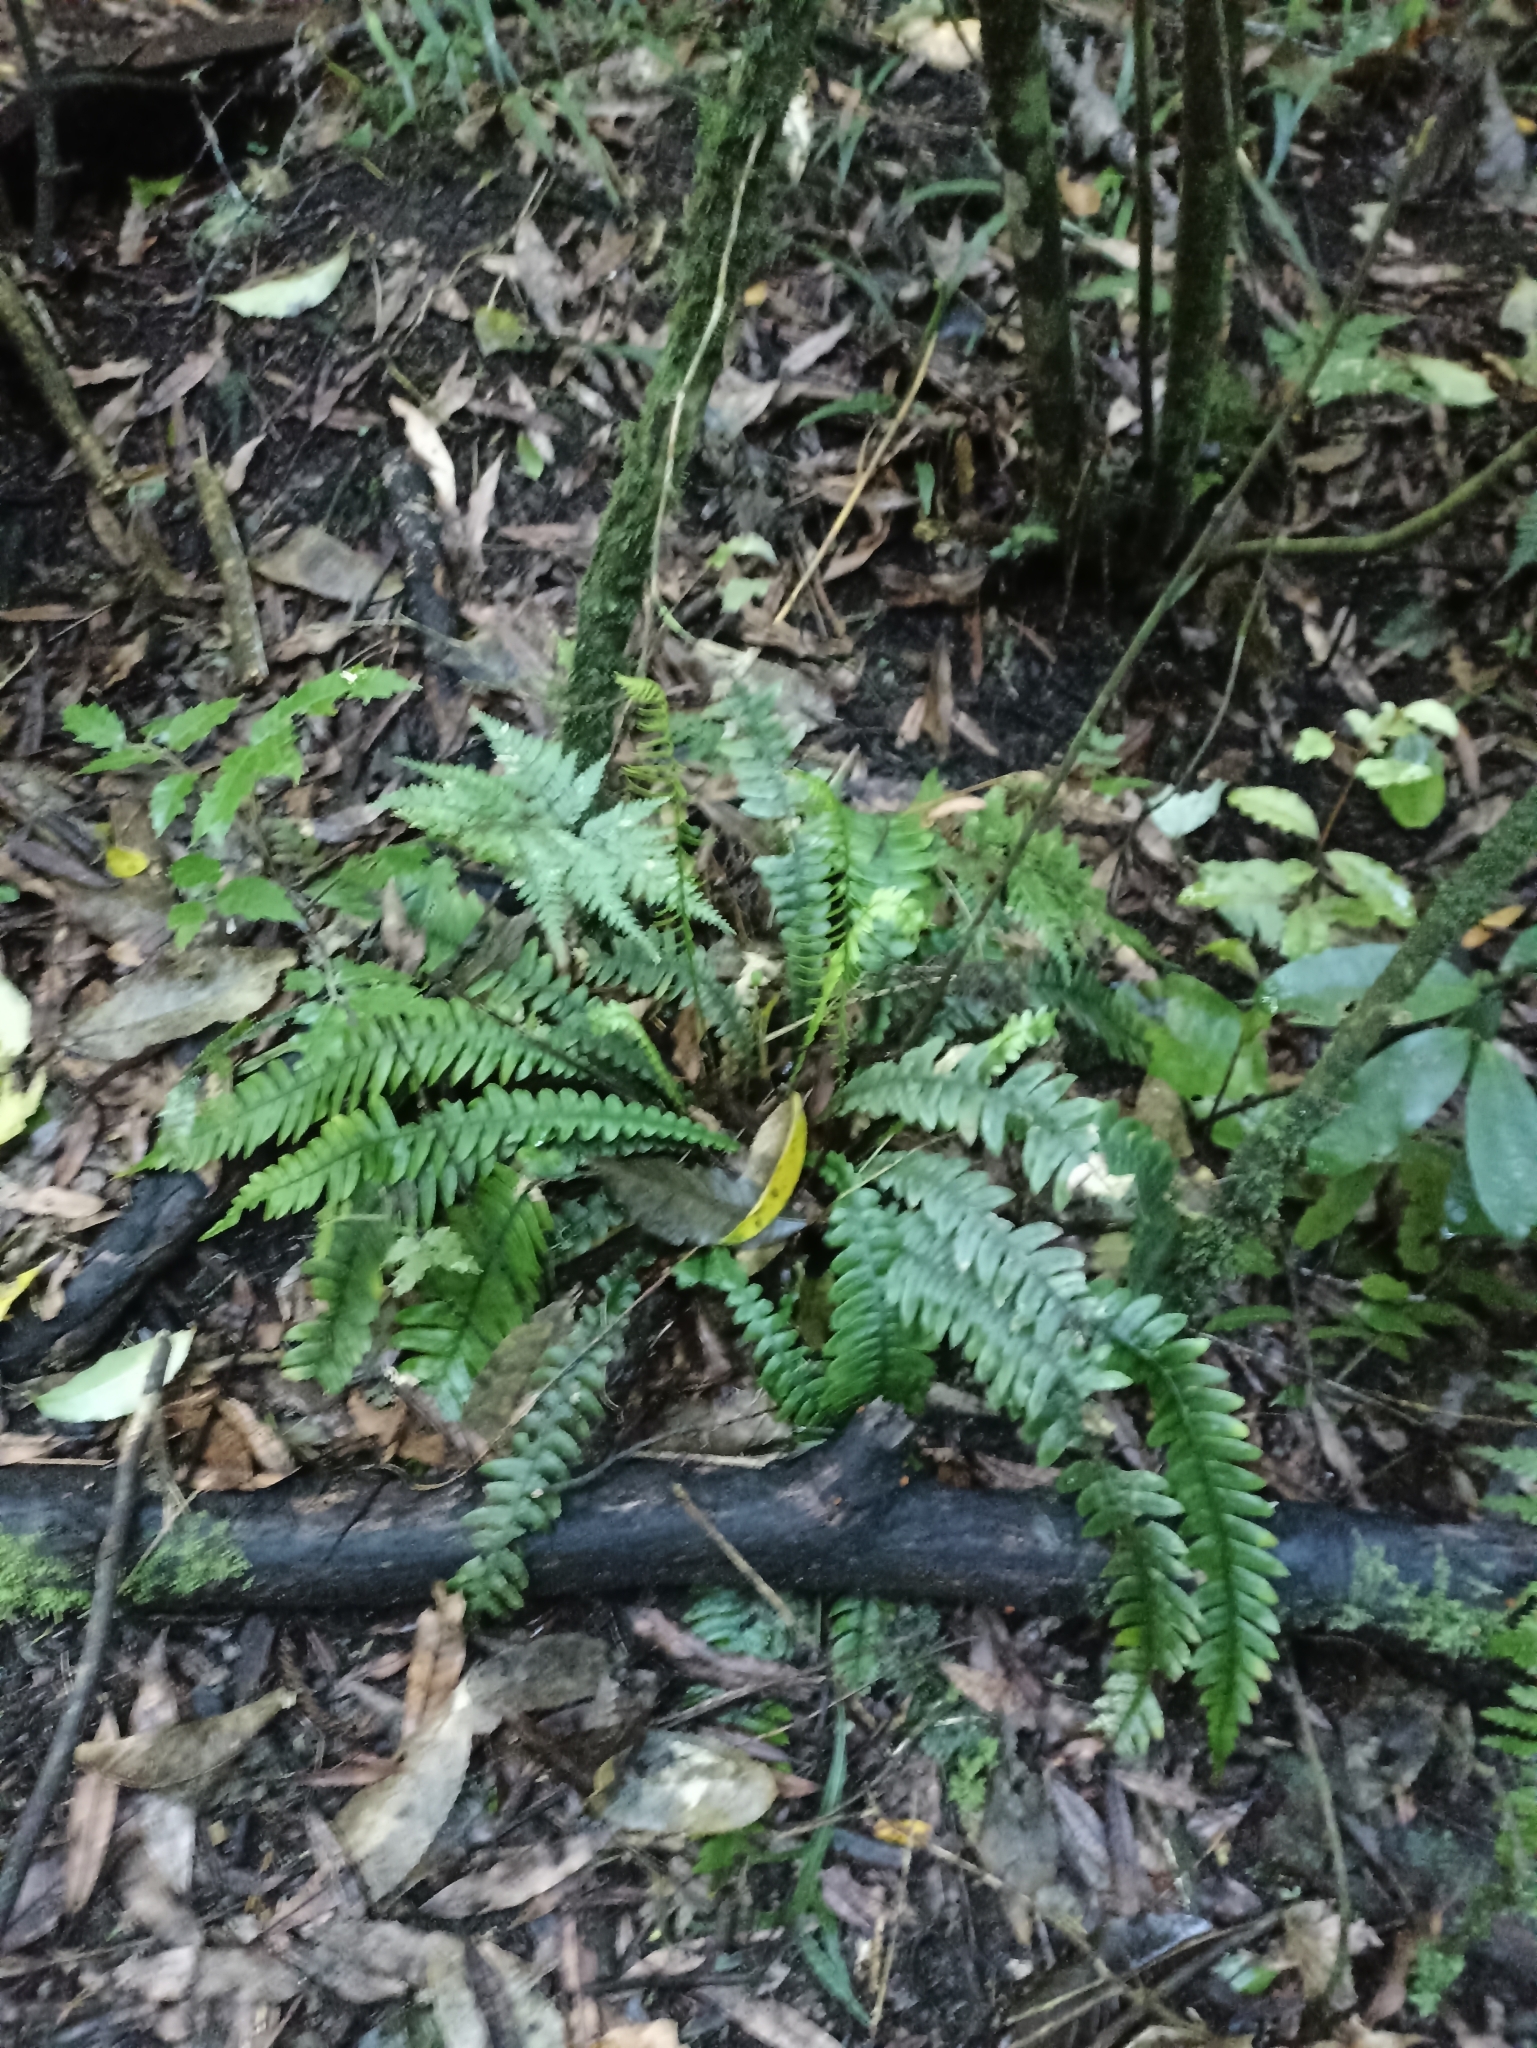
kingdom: Plantae
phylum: Tracheophyta
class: Polypodiopsida
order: Polypodiales
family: Blechnaceae
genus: Austroblechnum
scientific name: Austroblechnum lanceolatum
